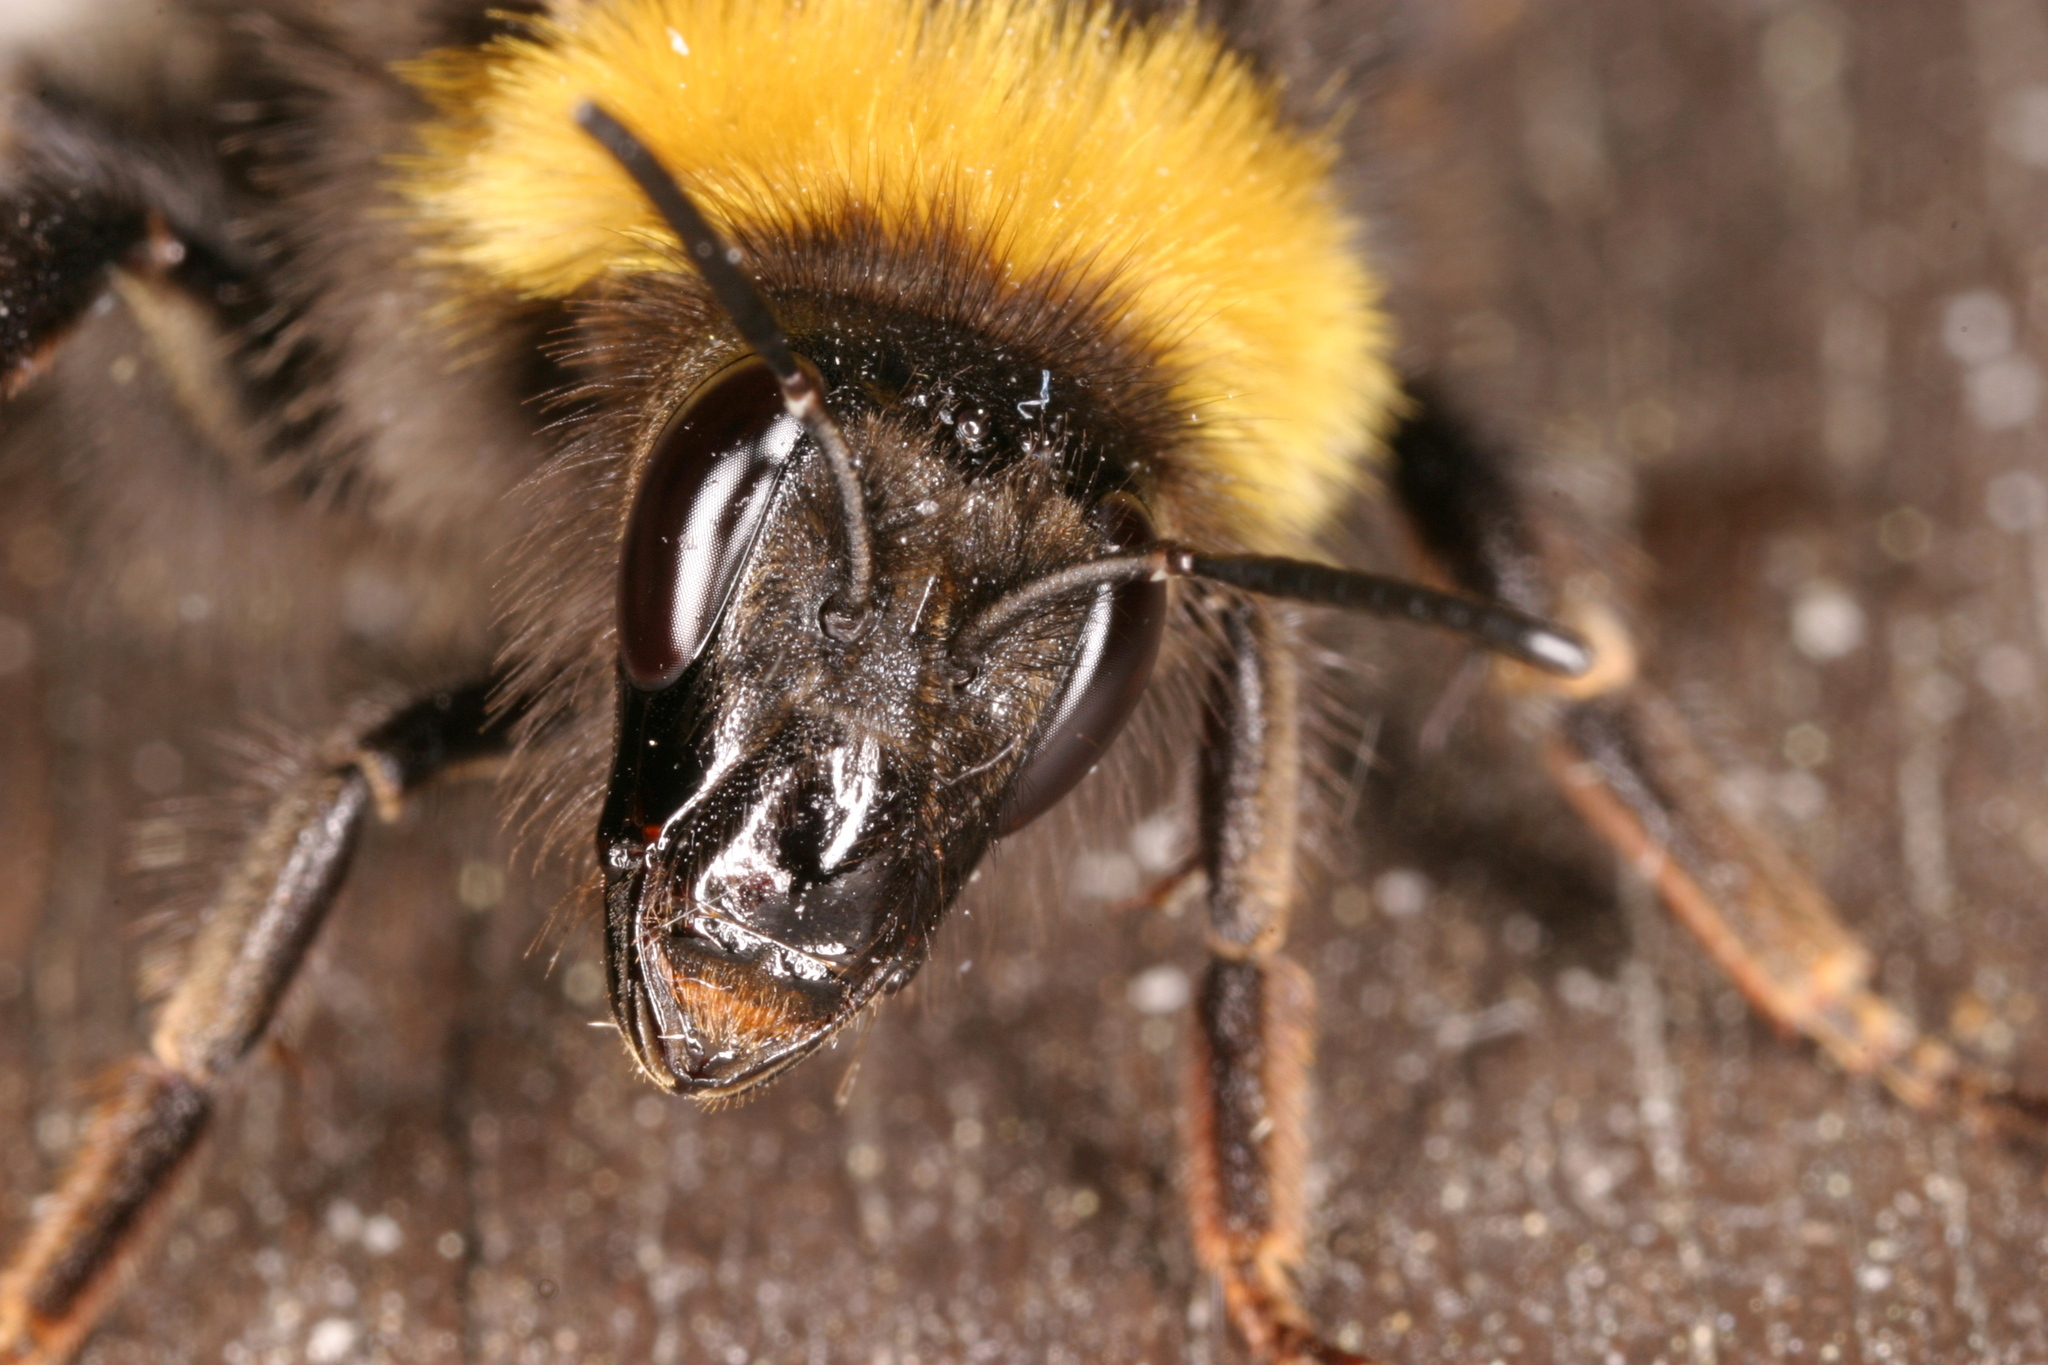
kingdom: Animalia
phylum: Arthropoda
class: Insecta
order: Hymenoptera
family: Apidae
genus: Bombus
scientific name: Bombus hortorum
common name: Garden bumblebee
